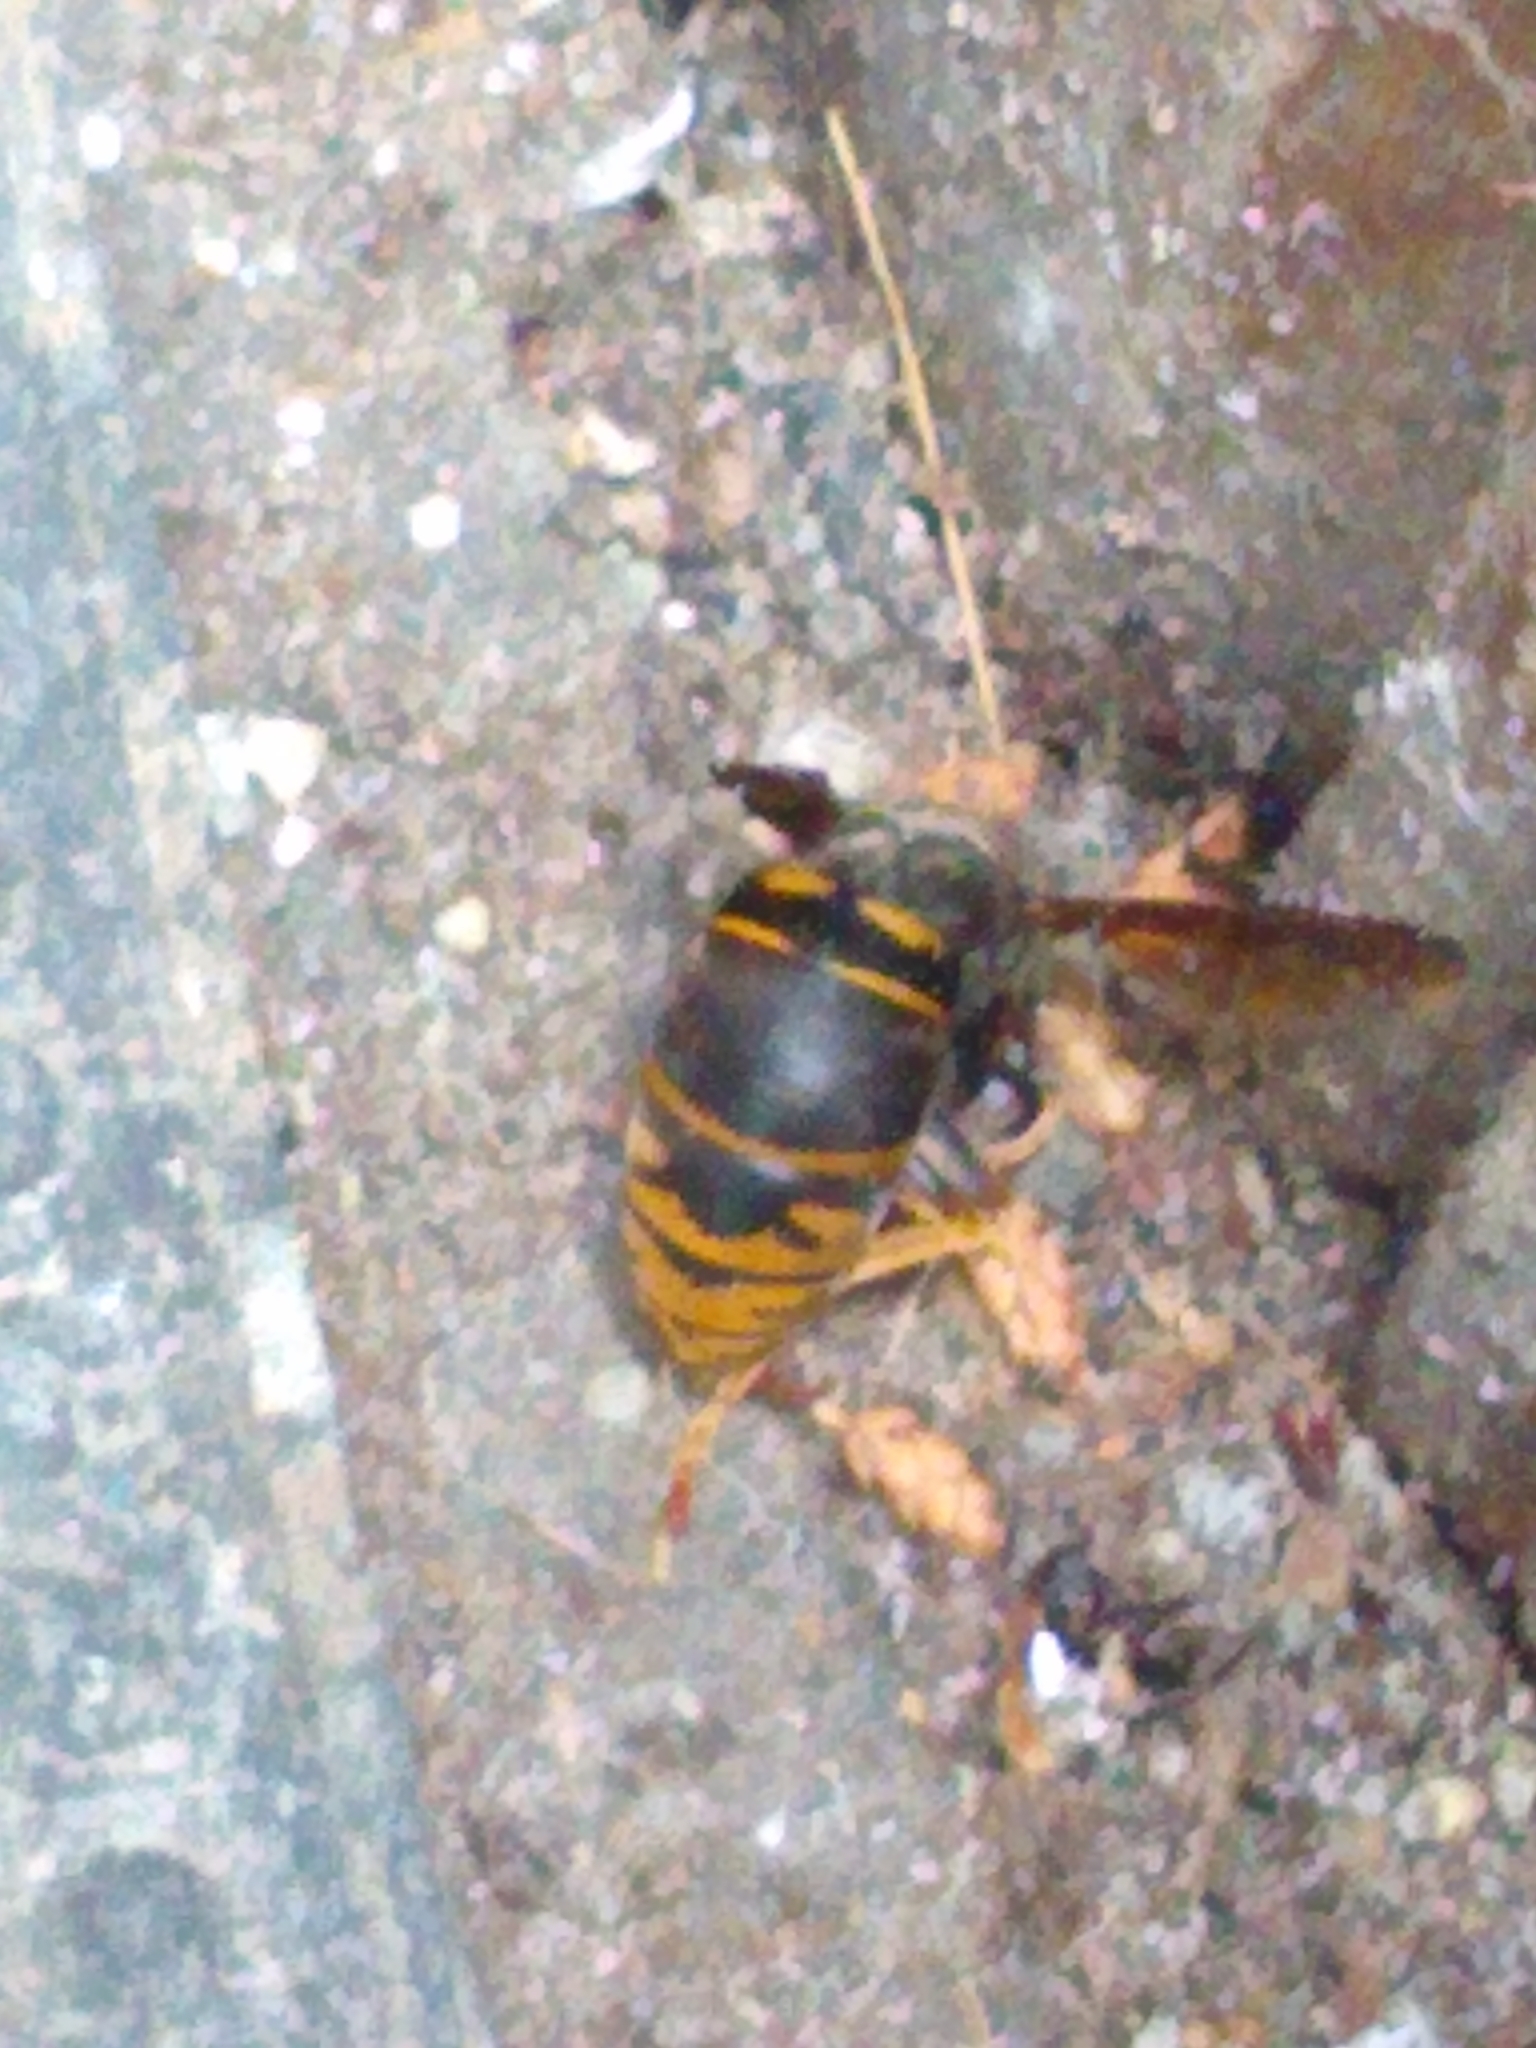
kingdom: Animalia
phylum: Arthropoda
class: Insecta
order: Hymenoptera
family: Vespidae
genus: Vespula
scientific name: Vespula vidua
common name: Widow yellowjacket
